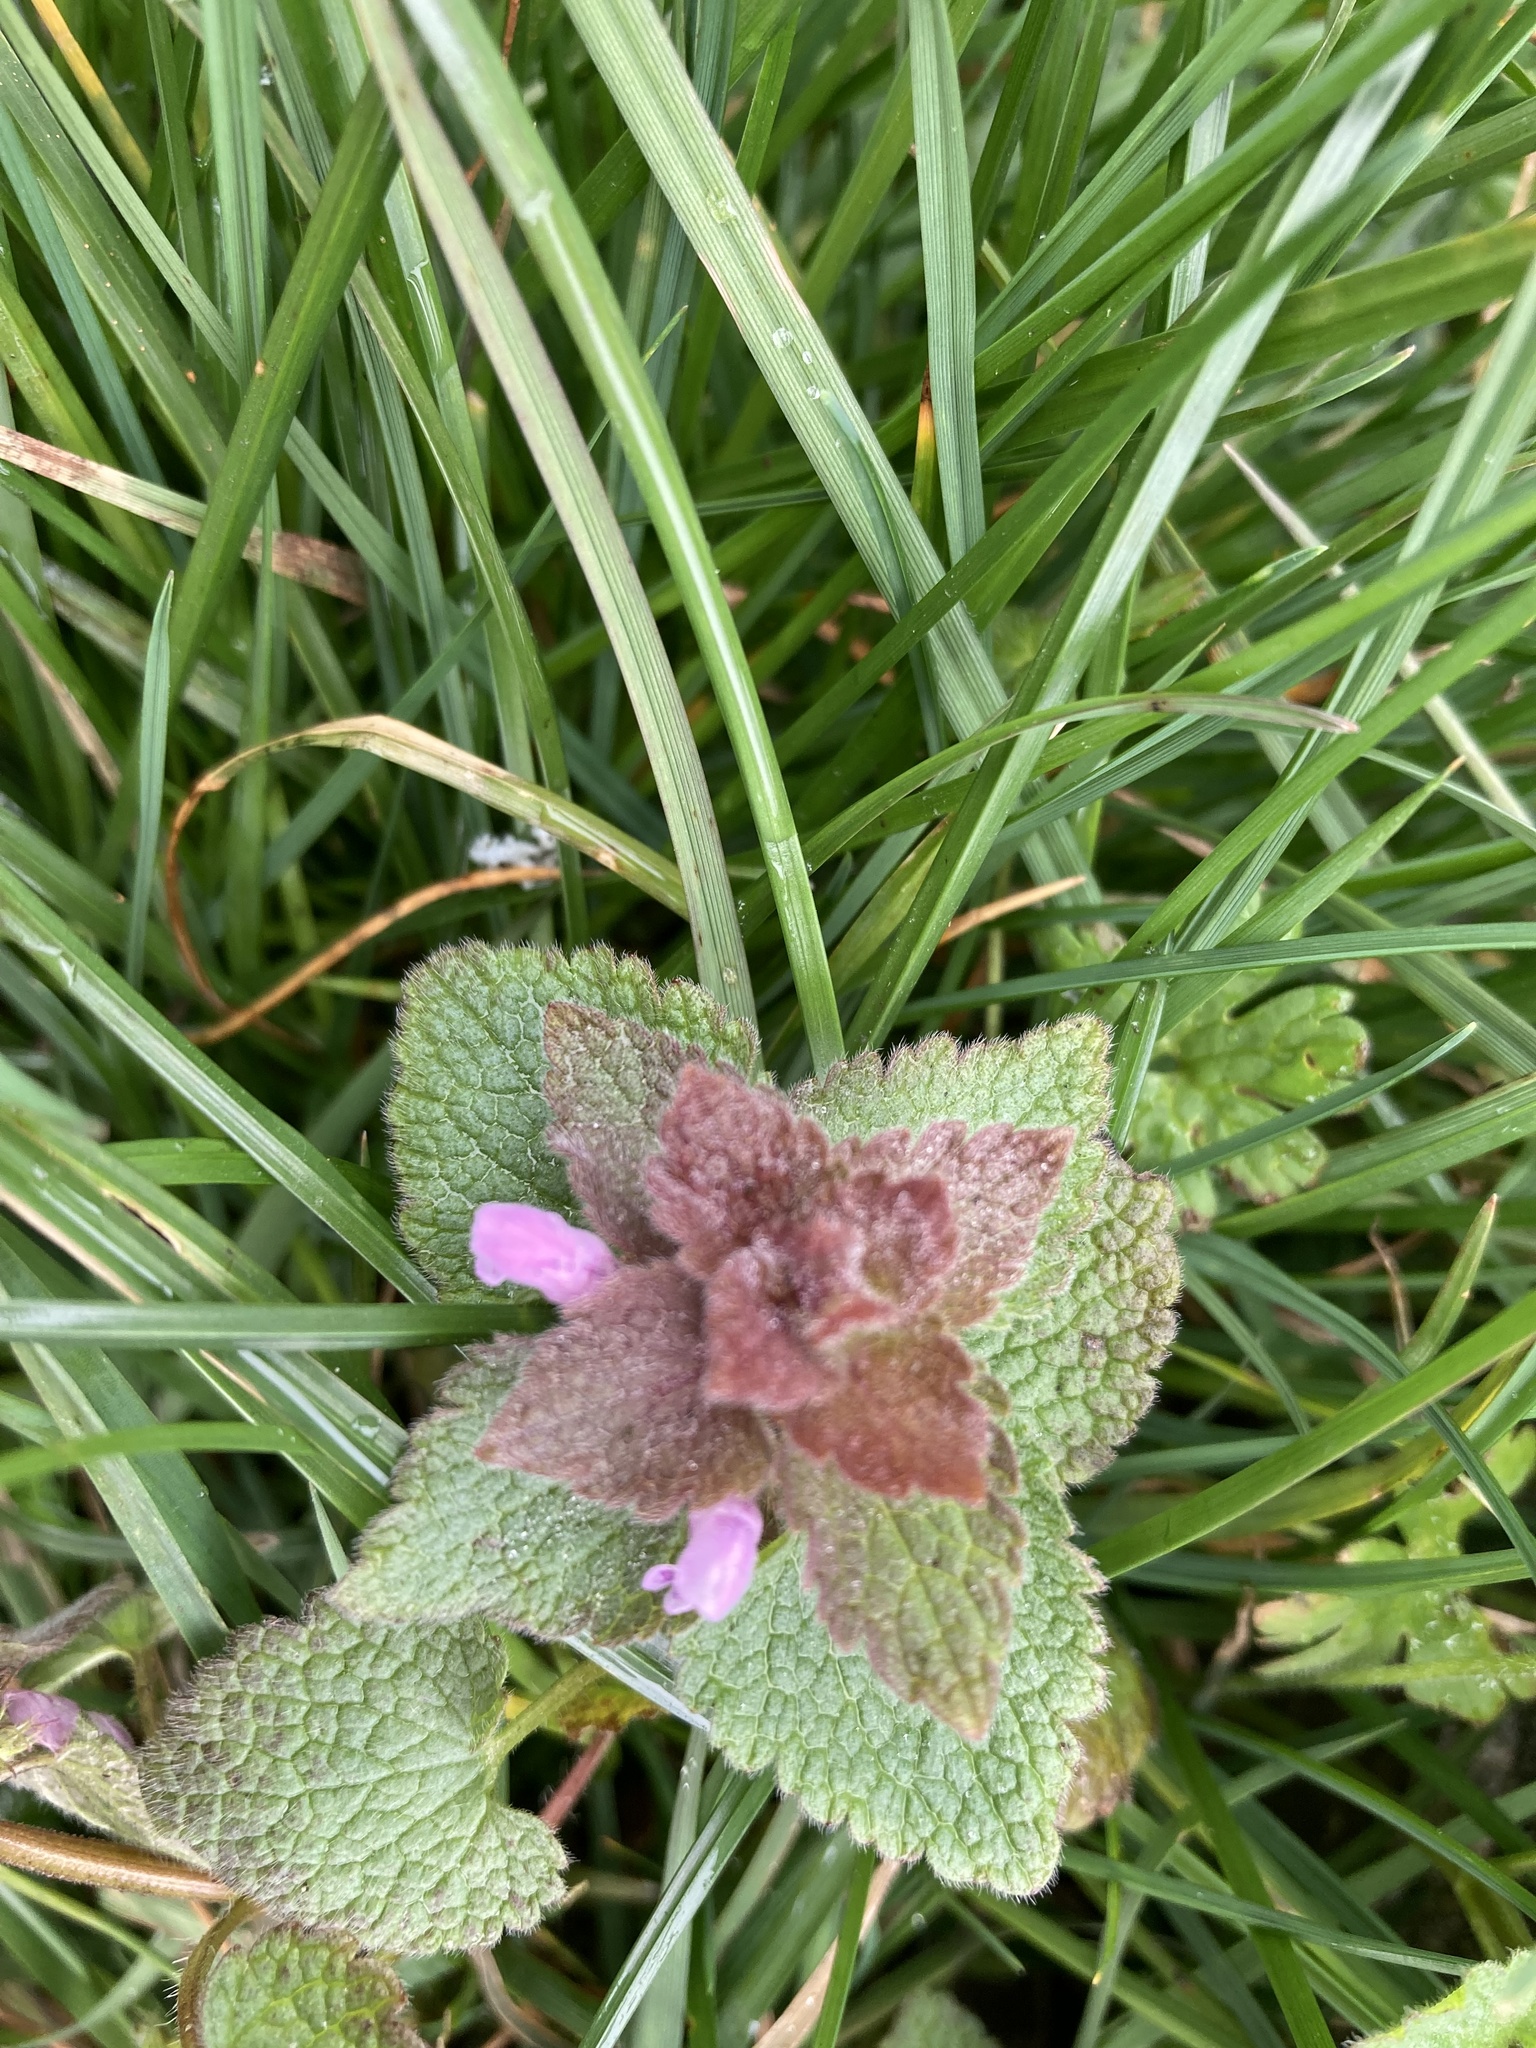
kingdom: Plantae
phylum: Tracheophyta
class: Magnoliopsida
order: Lamiales
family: Lamiaceae
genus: Lamium
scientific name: Lamium purpureum
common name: Red dead-nettle
